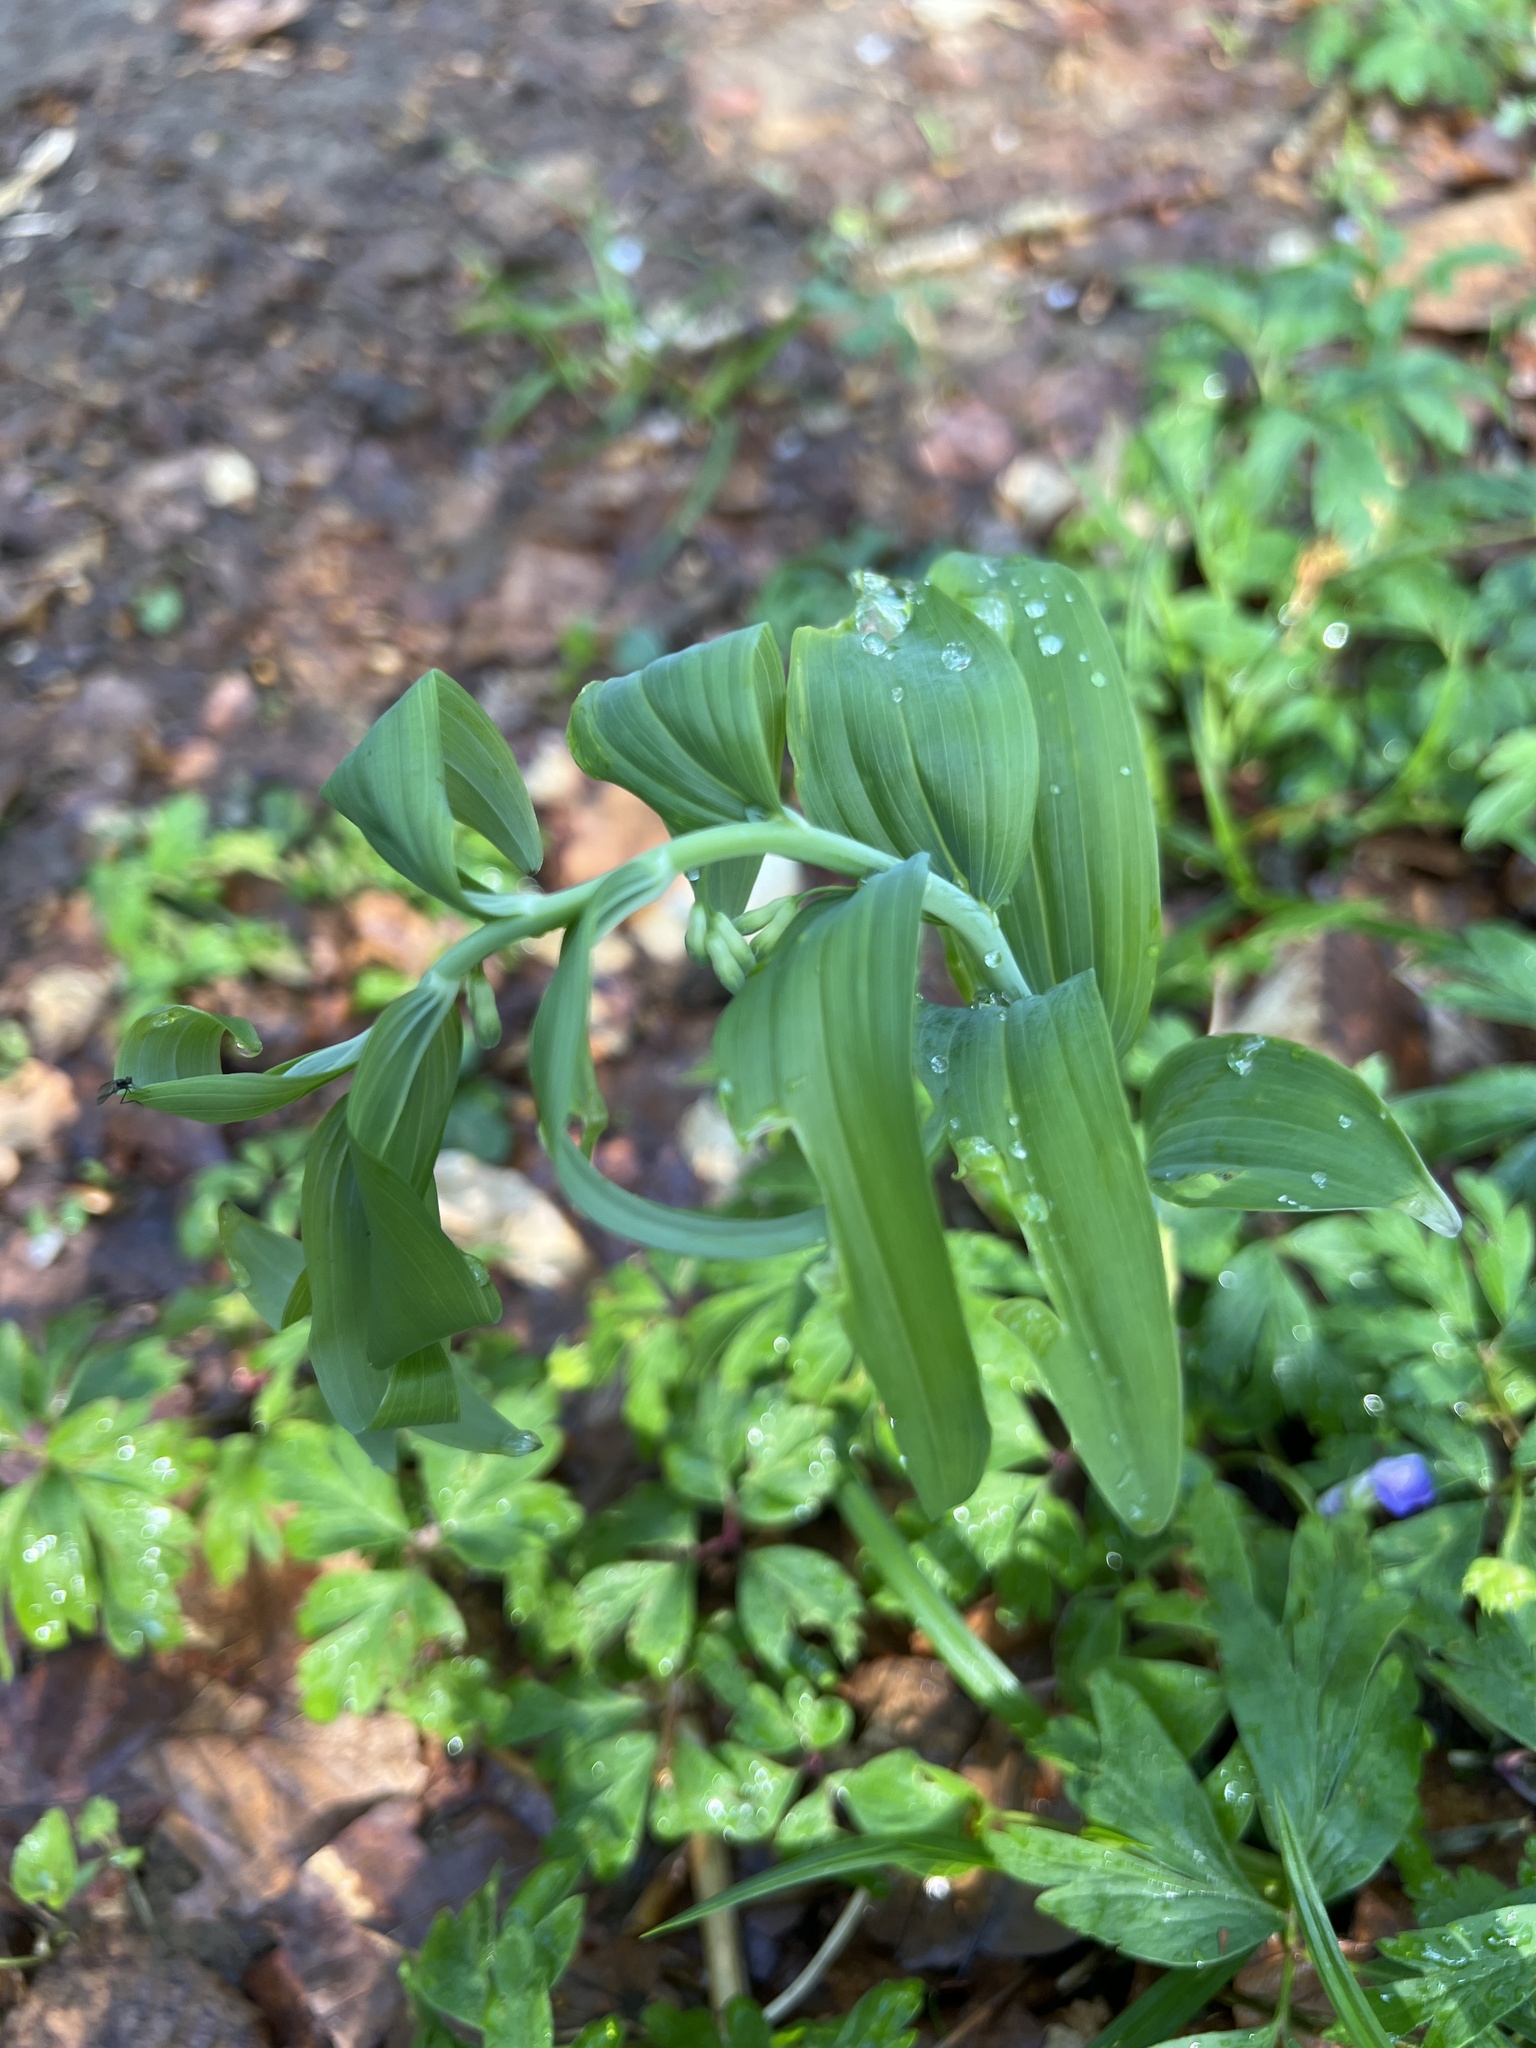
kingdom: Plantae
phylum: Tracheophyta
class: Liliopsida
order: Asparagales
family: Asparagaceae
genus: Polygonatum
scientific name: Polygonatum multiflorum
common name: Solomon's-seal
